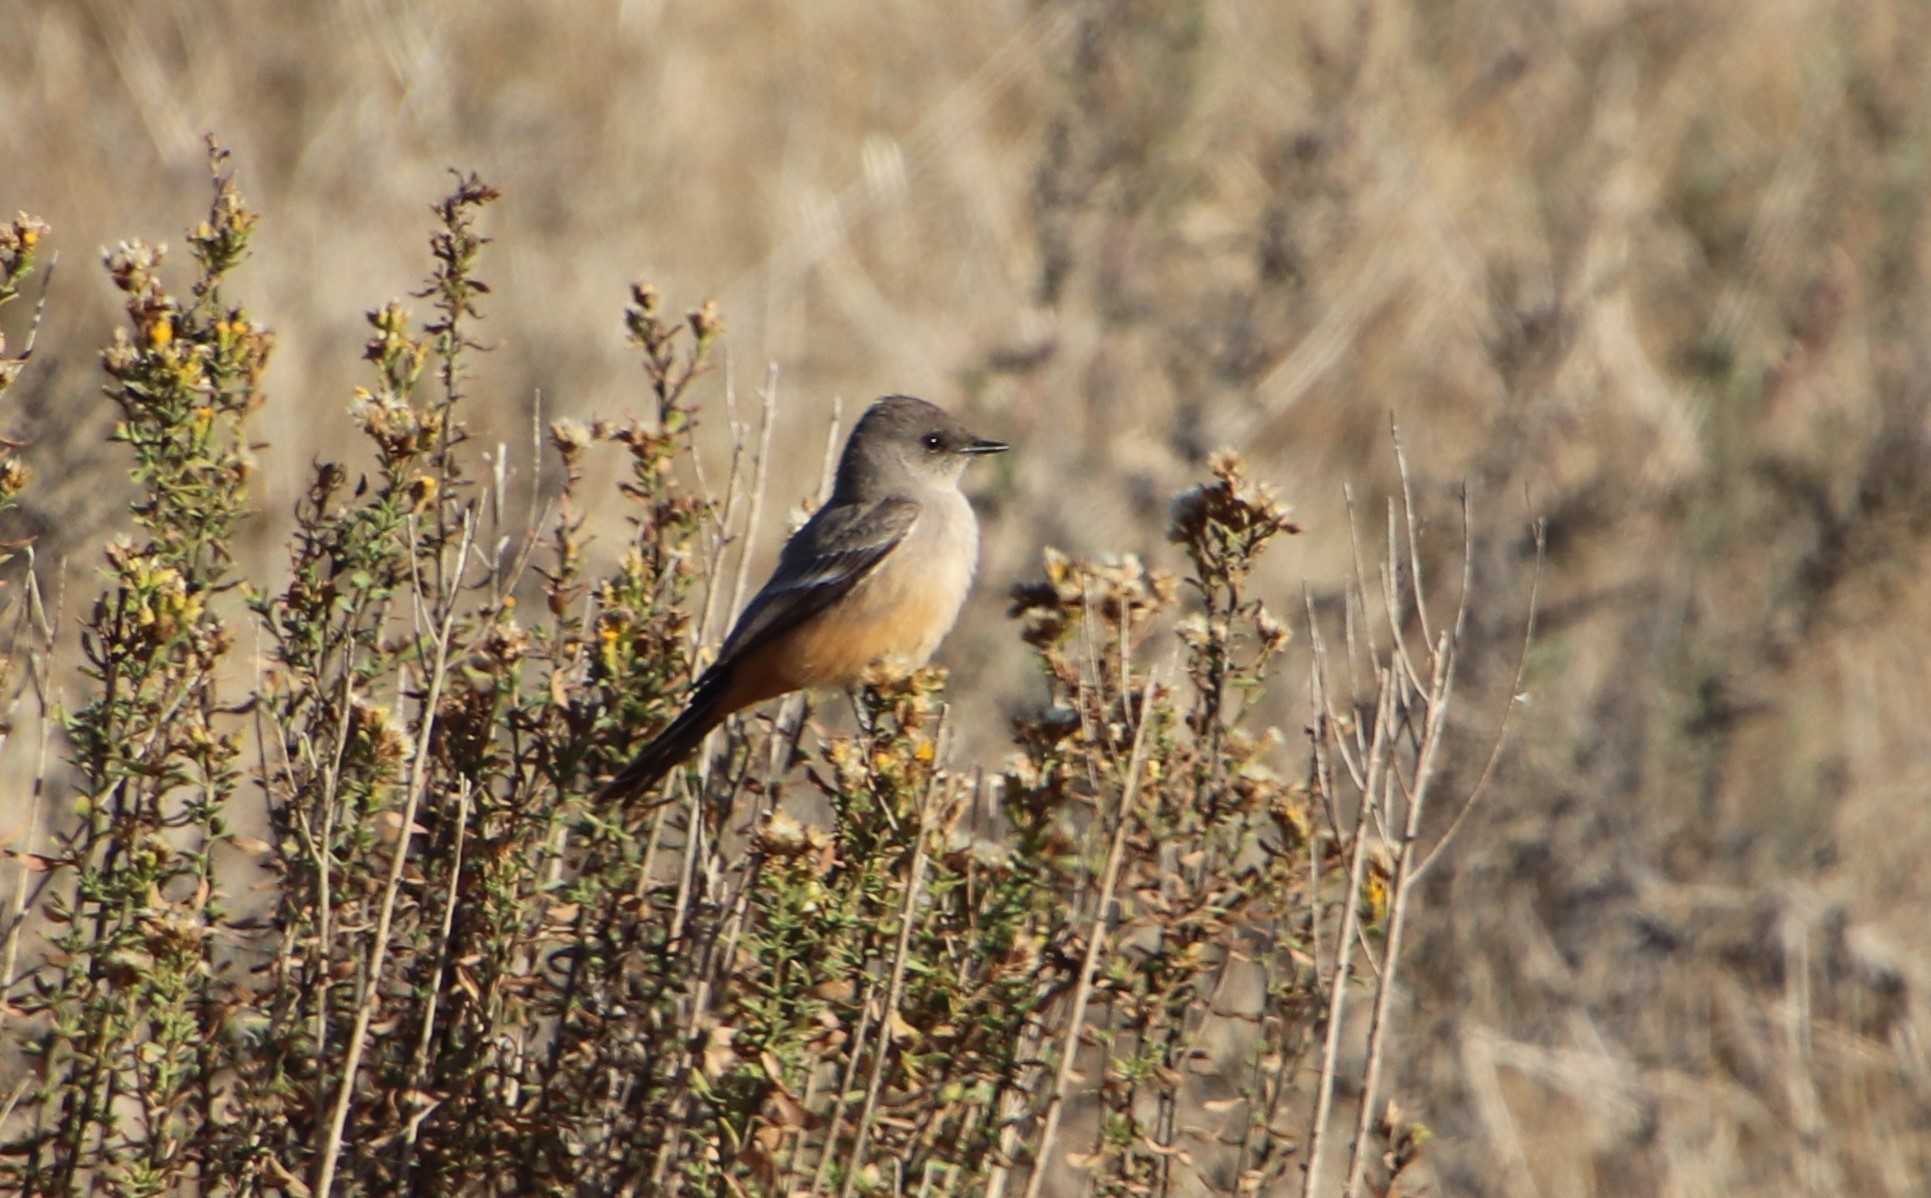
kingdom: Animalia
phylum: Chordata
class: Aves
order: Passeriformes
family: Tyrannidae
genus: Sayornis
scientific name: Sayornis saya
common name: Say's phoebe
